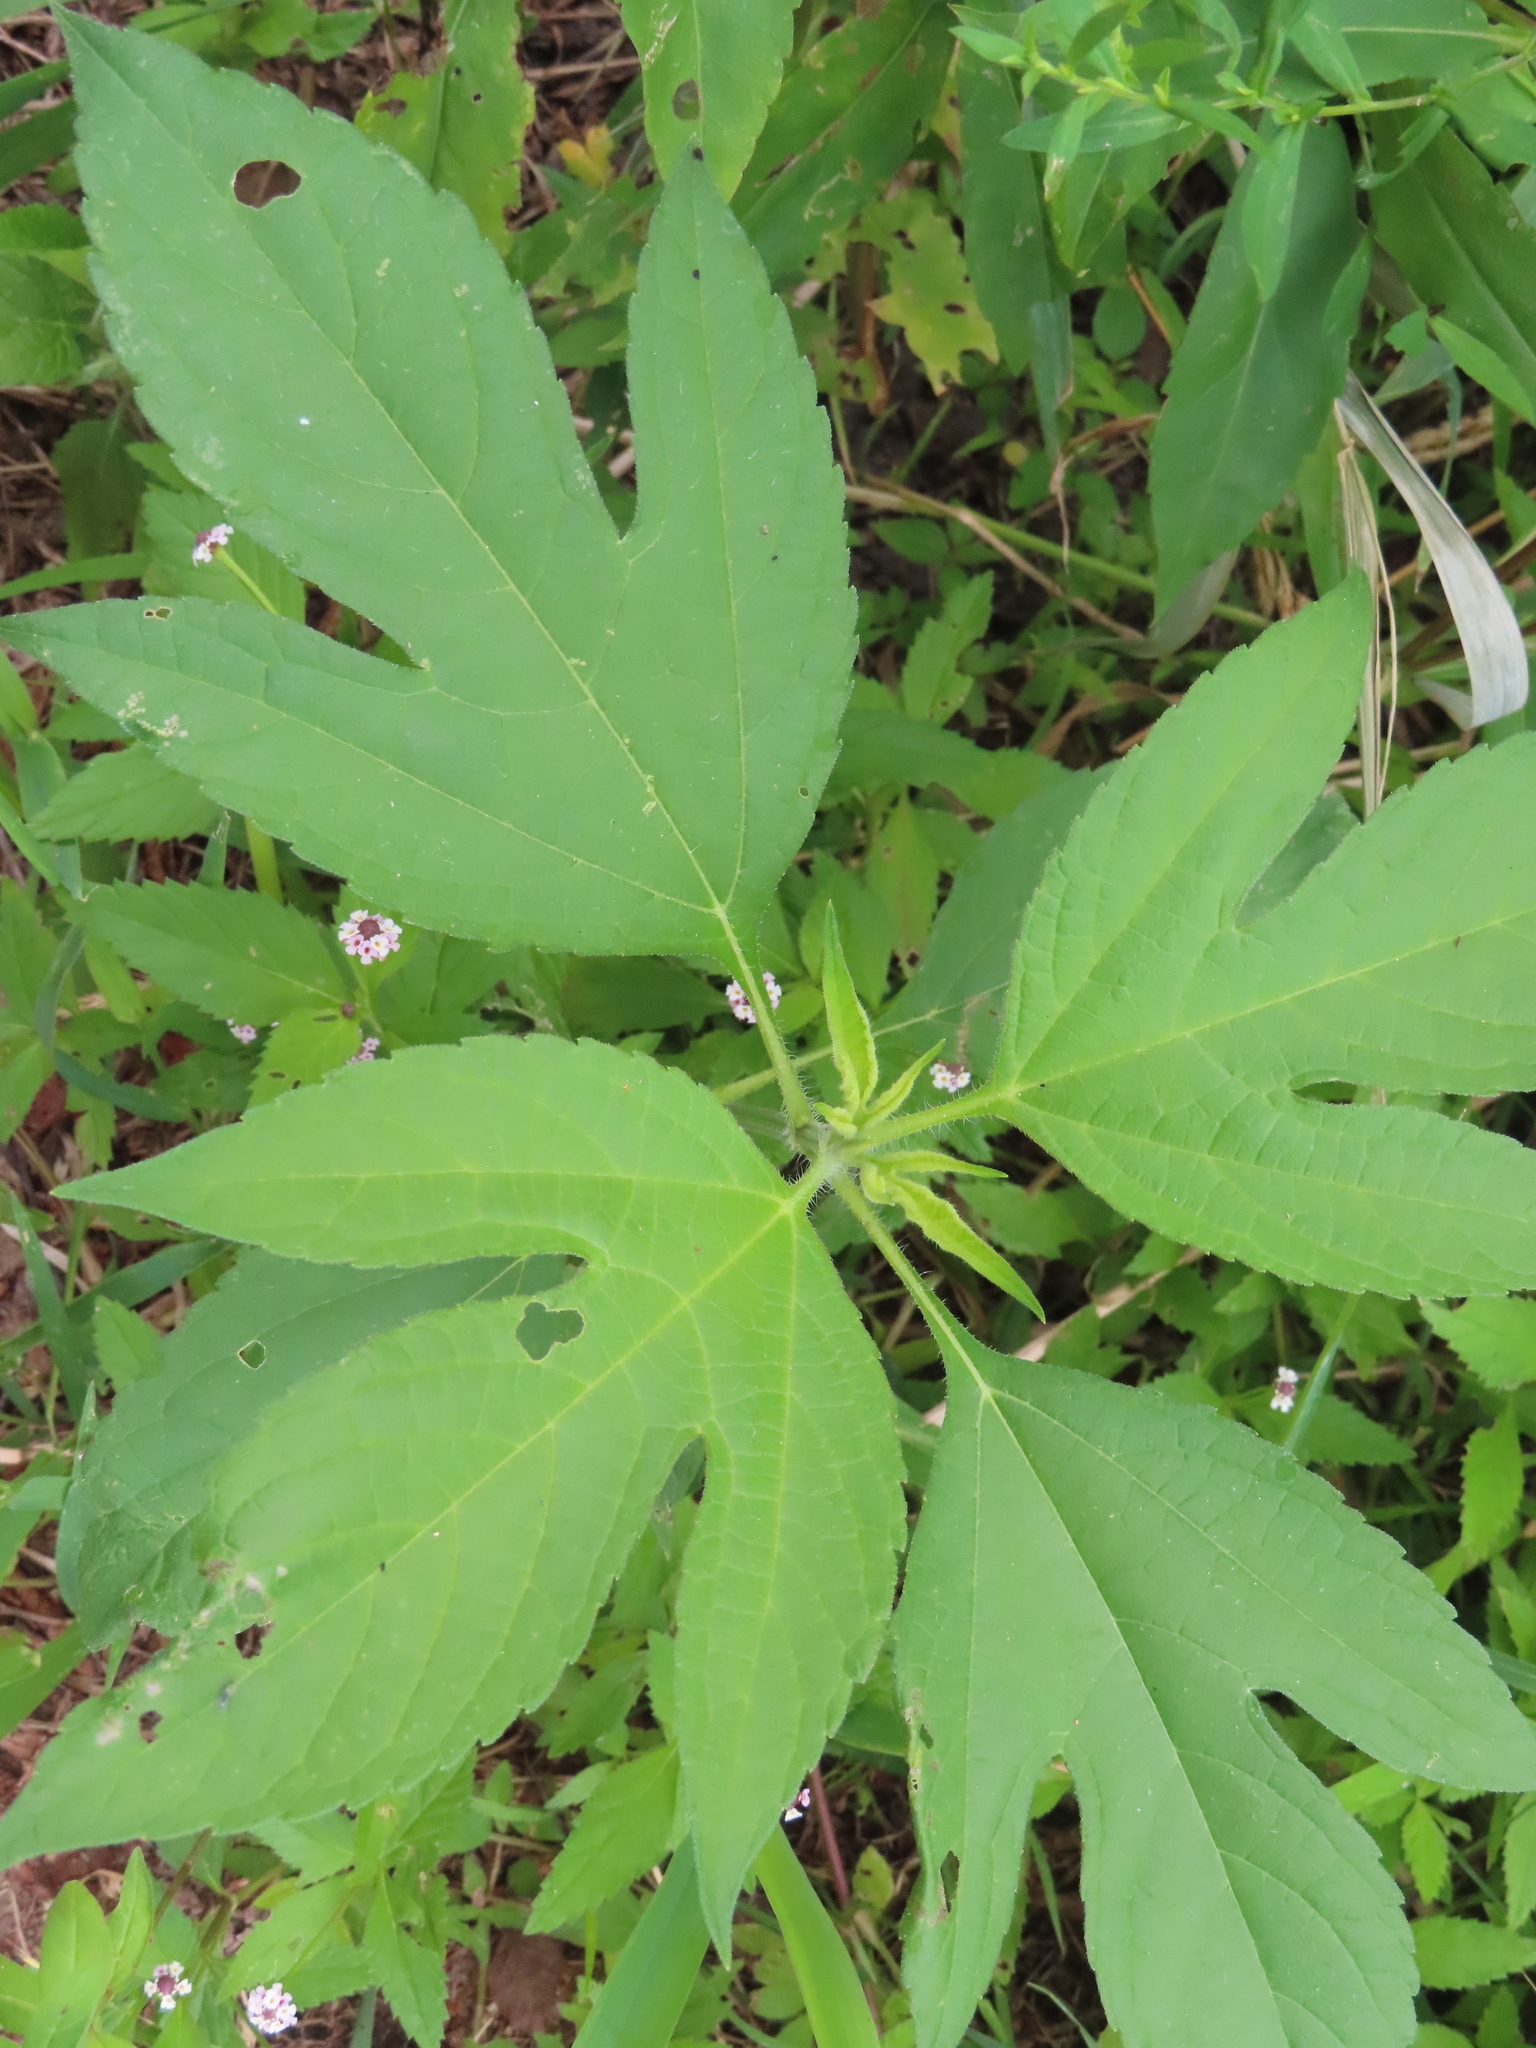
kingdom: Plantae
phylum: Tracheophyta
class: Magnoliopsida
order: Asterales
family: Asteraceae
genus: Ambrosia
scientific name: Ambrosia trifida
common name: Giant ragweed
